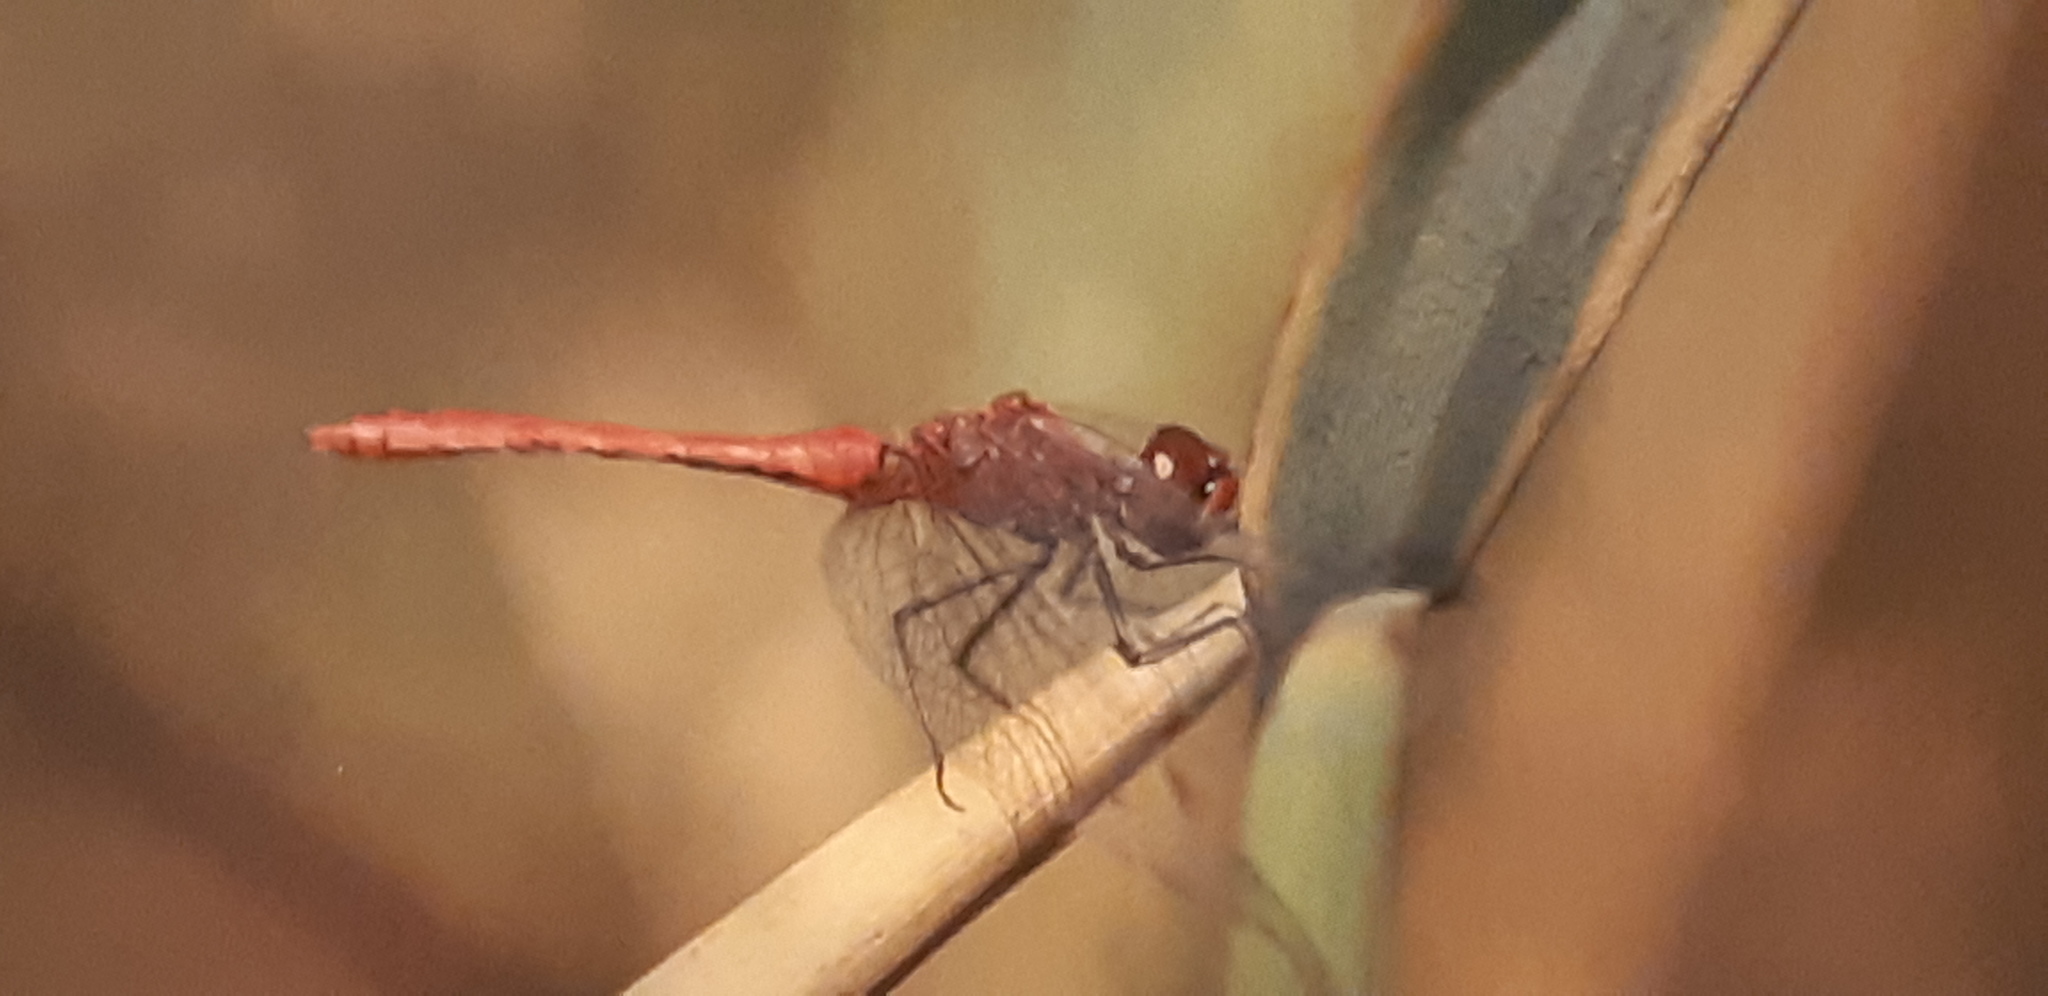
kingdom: Animalia
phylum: Arthropoda
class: Insecta
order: Odonata
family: Libellulidae
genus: Sympetrum
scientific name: Sympetrum sanguineum
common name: Ruddy darter
